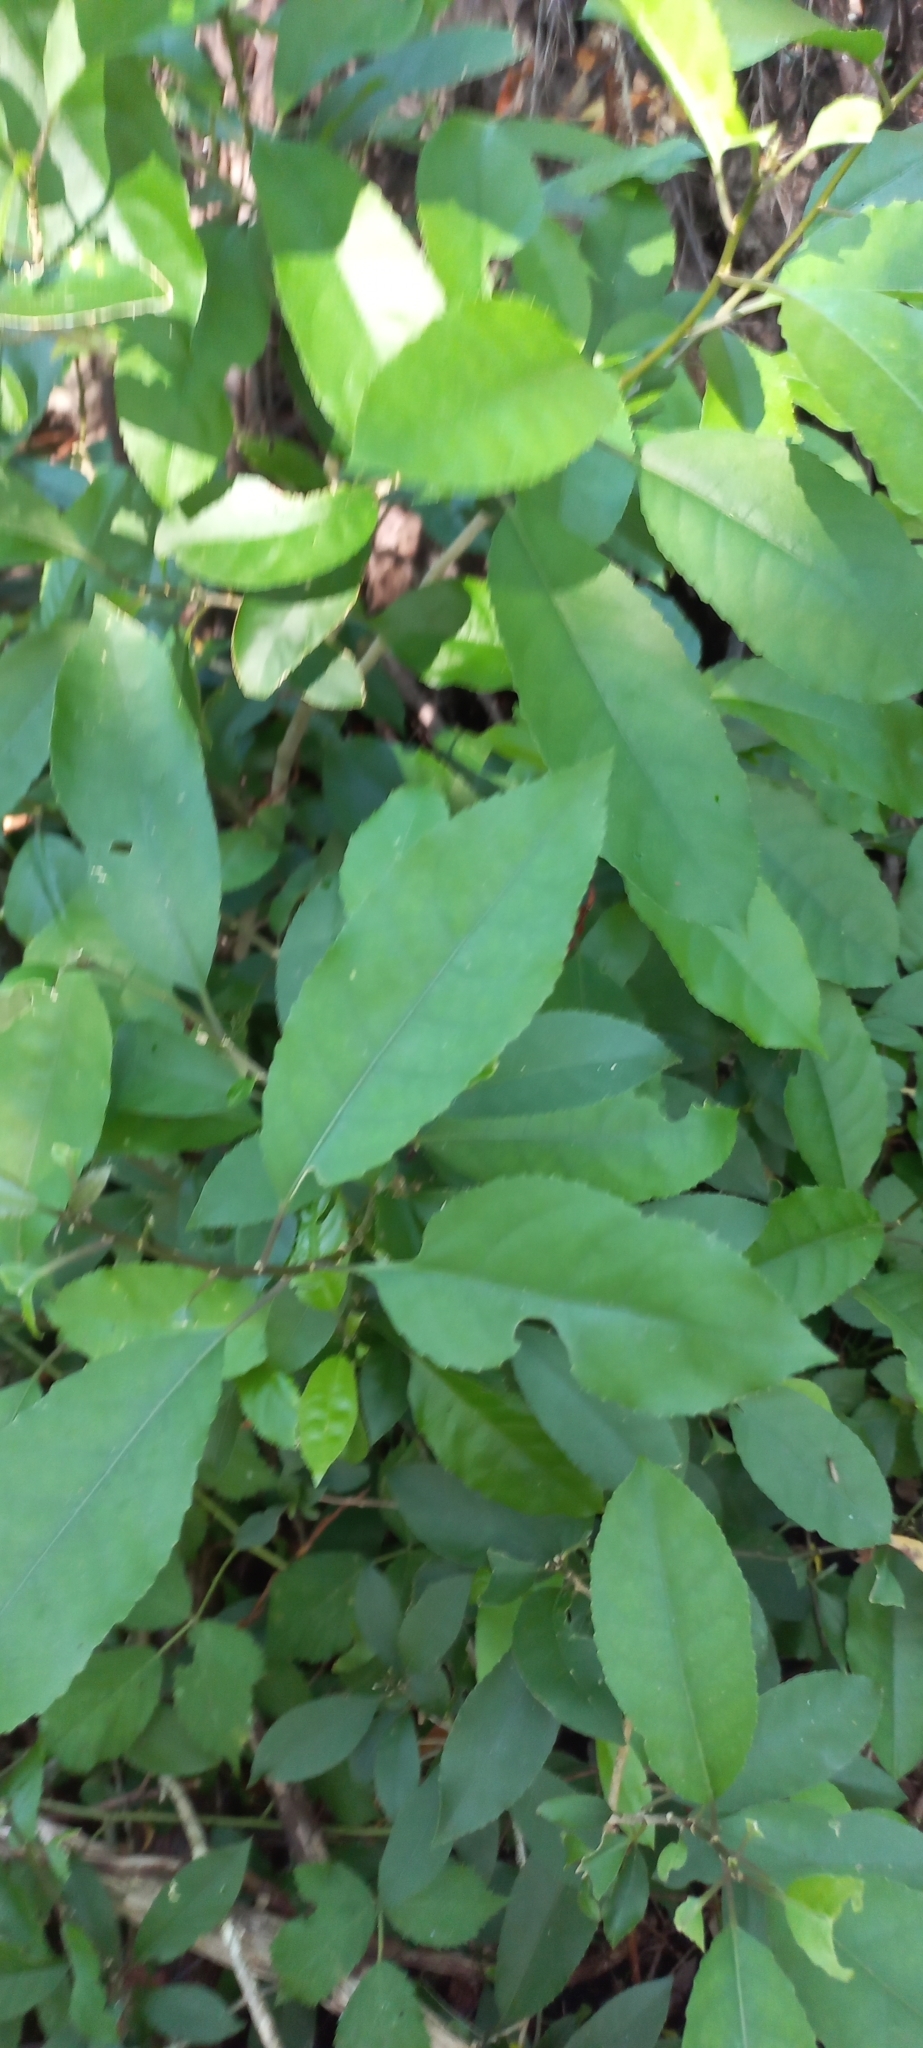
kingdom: Plantae
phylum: Tracheophyta
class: Magnoliopsida
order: Malpighiales
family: Violaceae
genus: Melicytus
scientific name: Melicytus ramiflorus
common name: Mahoe
